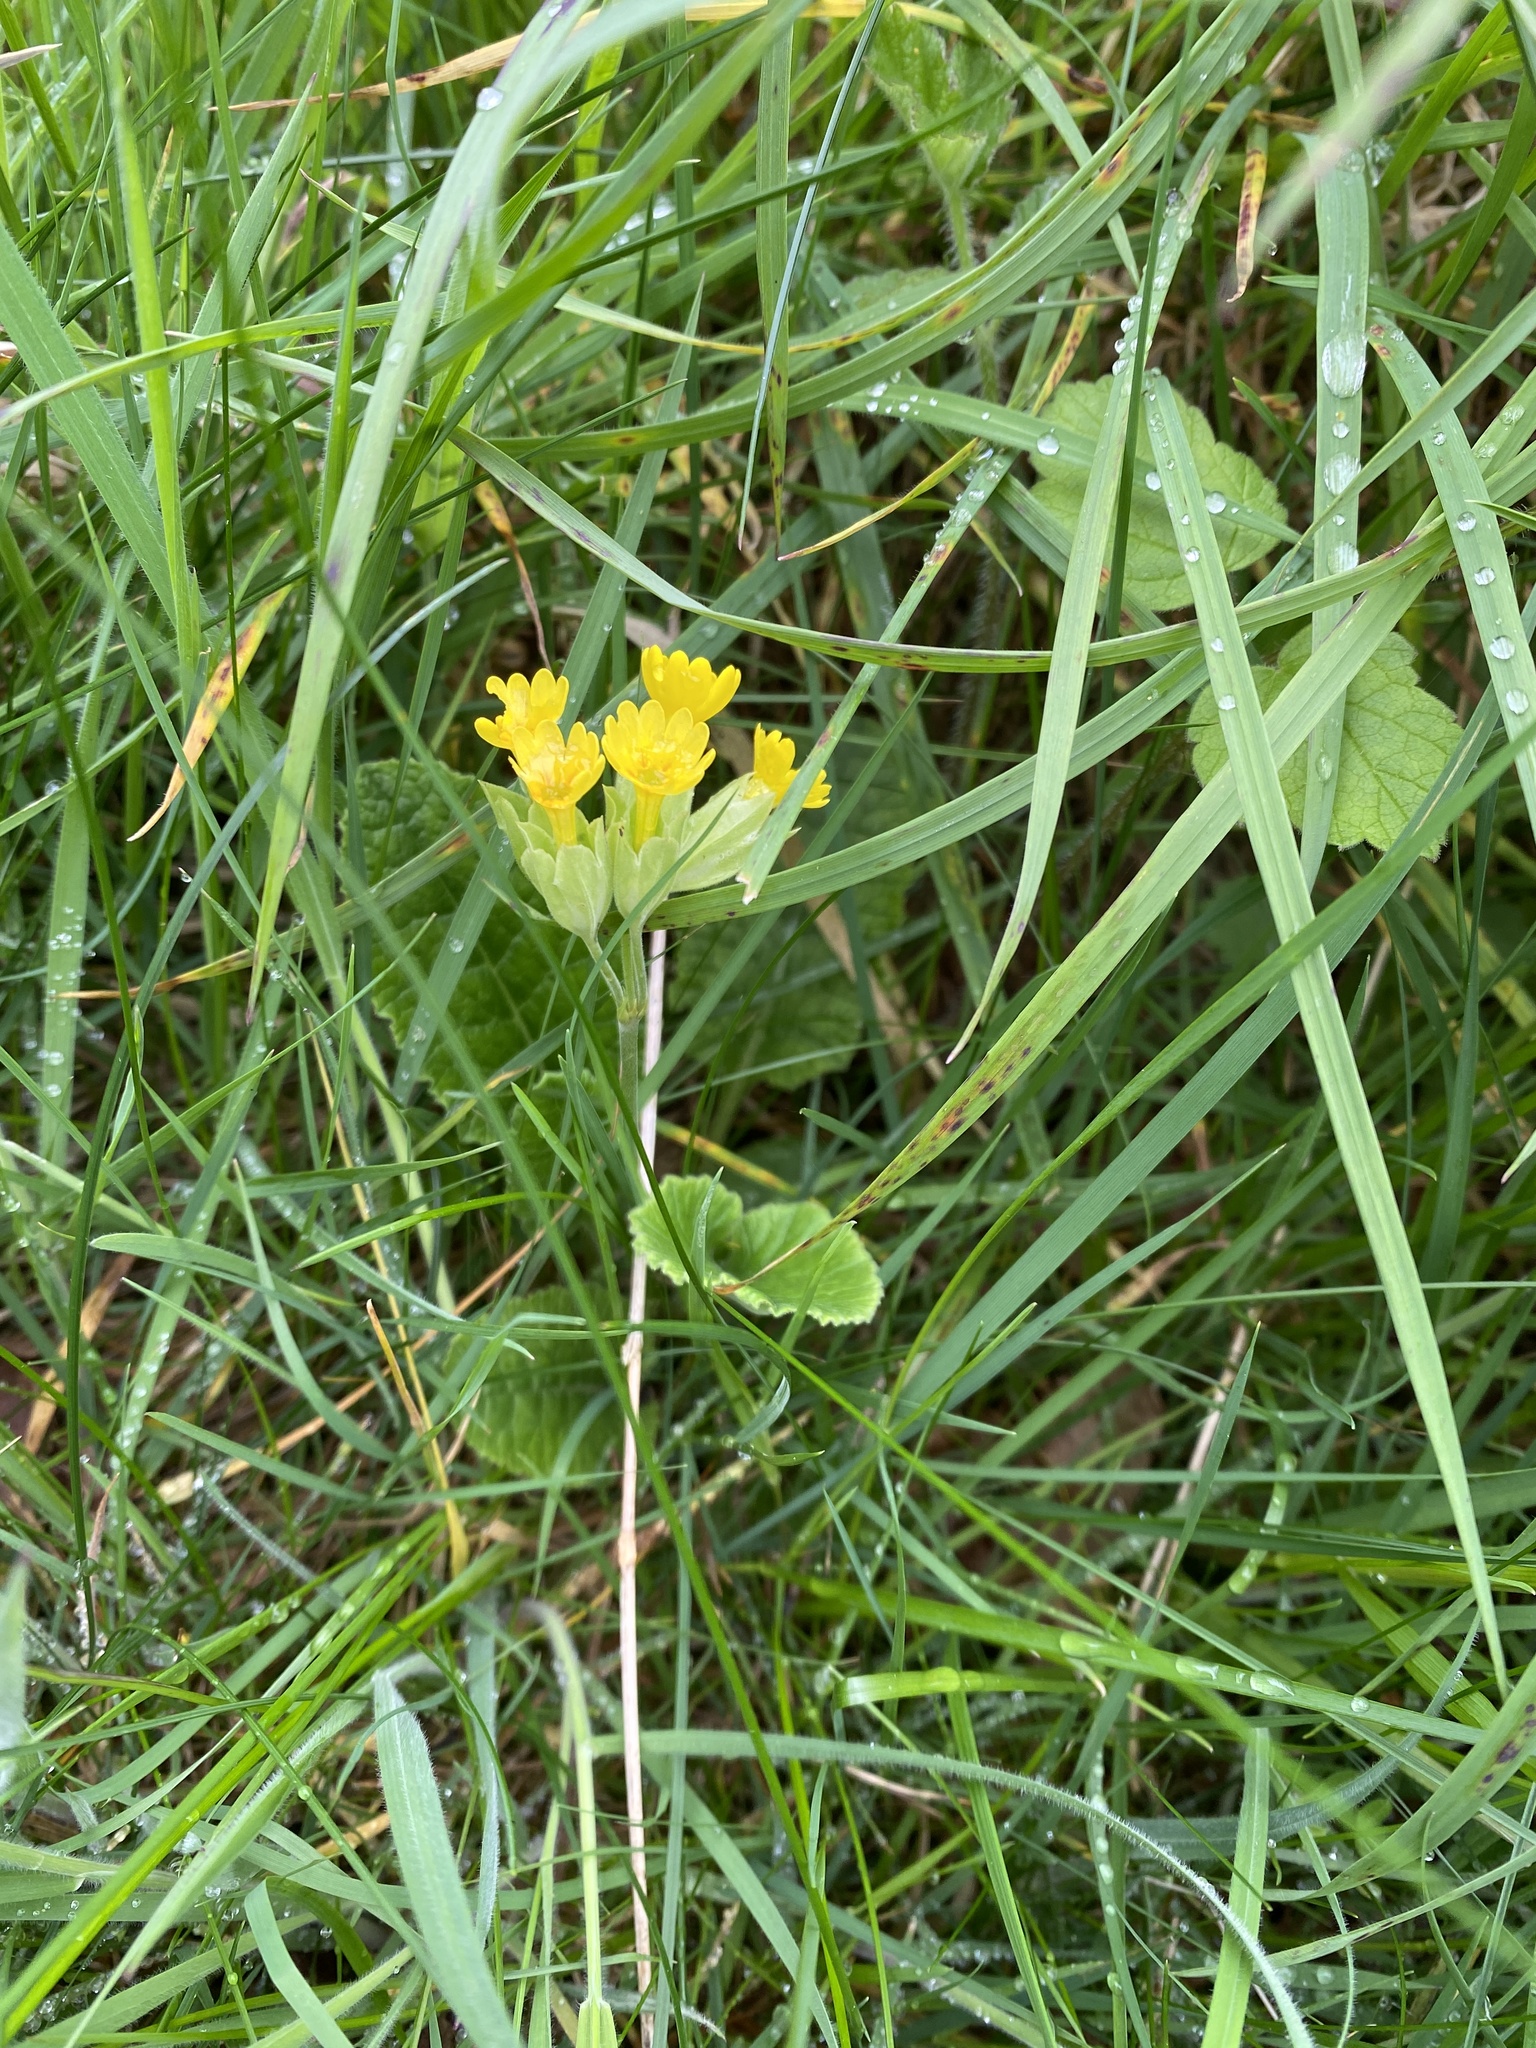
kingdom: Plantae
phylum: Tracheophyta
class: Magnoliopsida
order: Ericales
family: Primulaceae
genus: Primula
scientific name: Primula veris
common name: Cowslip
